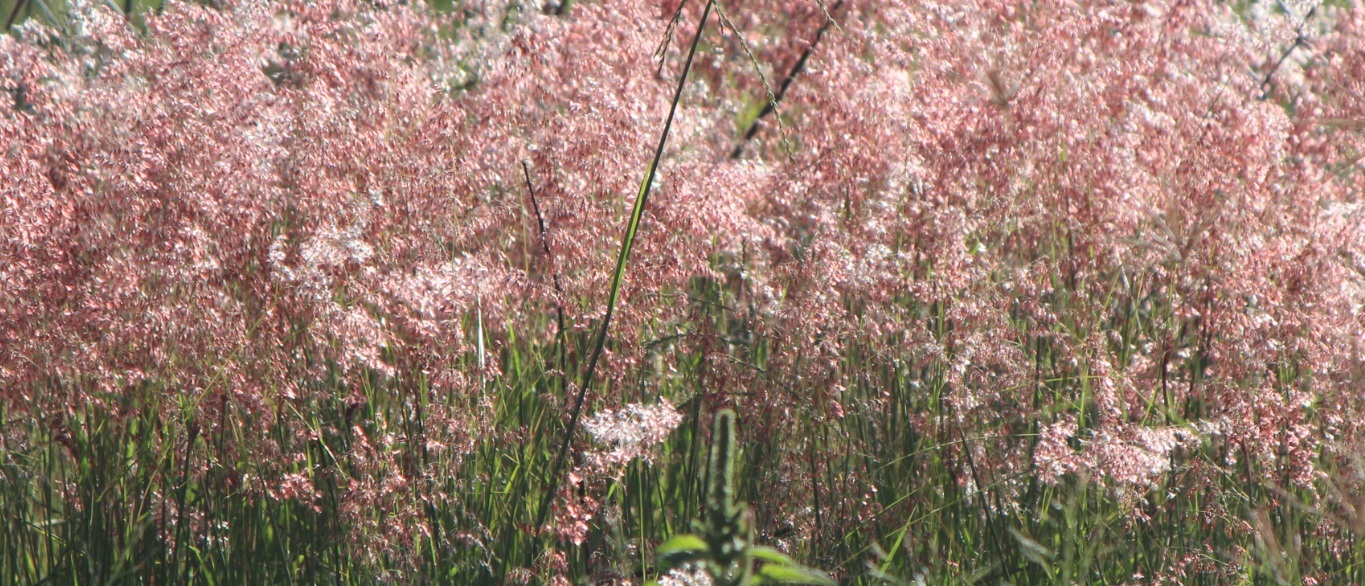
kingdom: Plantae
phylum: Tracheophyta
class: Liliopsida
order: Poales
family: Poaceae
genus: Melinis
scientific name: Melinis repens
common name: Rose natal grass
